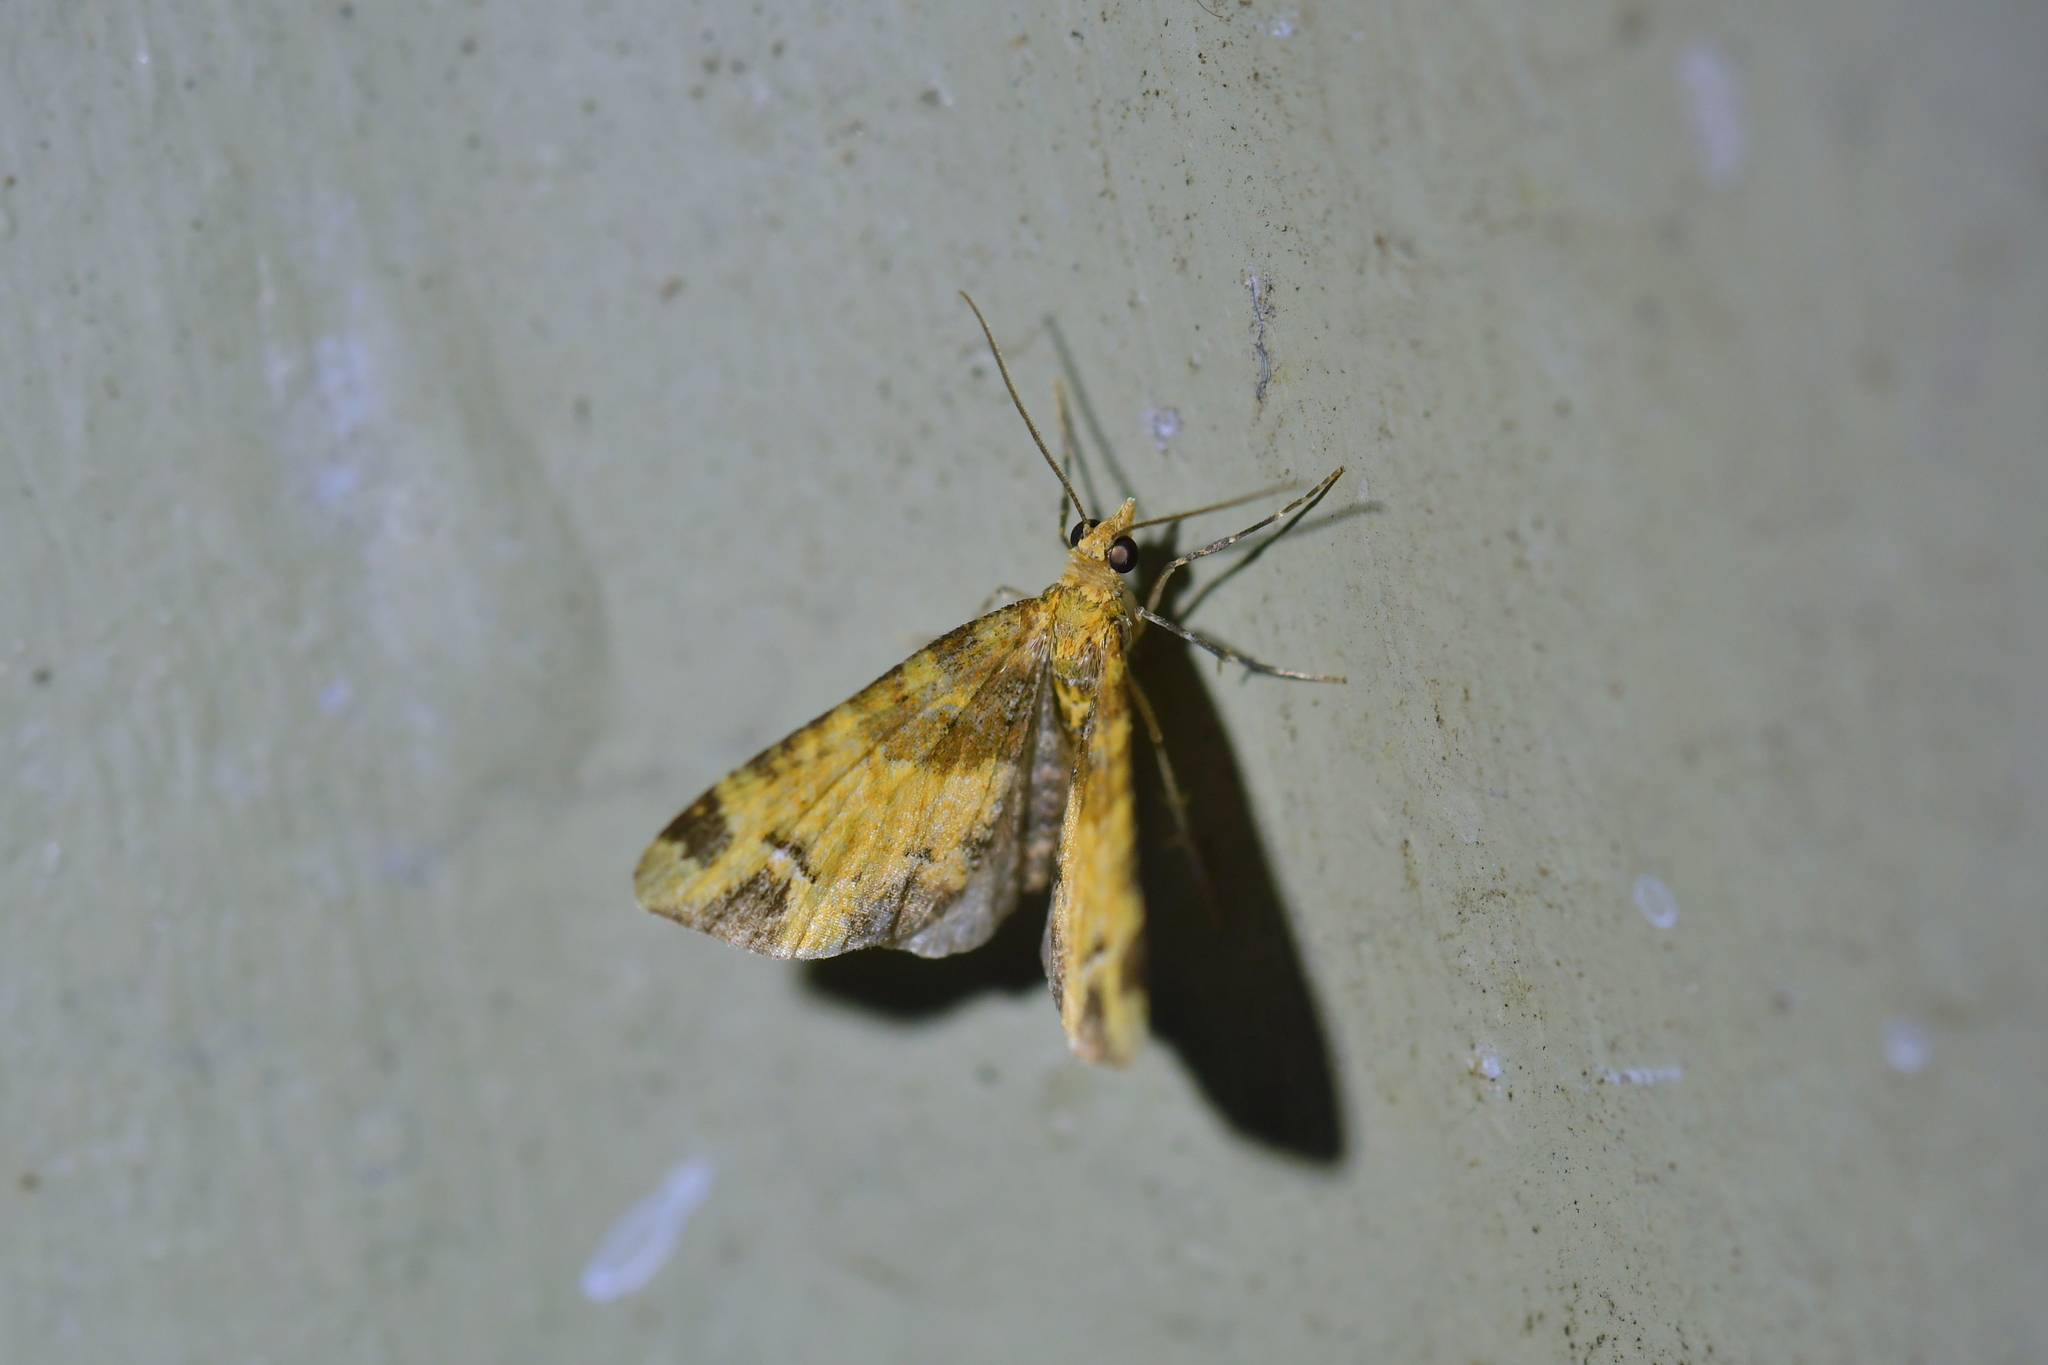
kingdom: Animalia
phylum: Arthropoda
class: Insecta
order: Lepidoptera
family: Geometridae
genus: Pasiphila
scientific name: Pasiphila malachita
